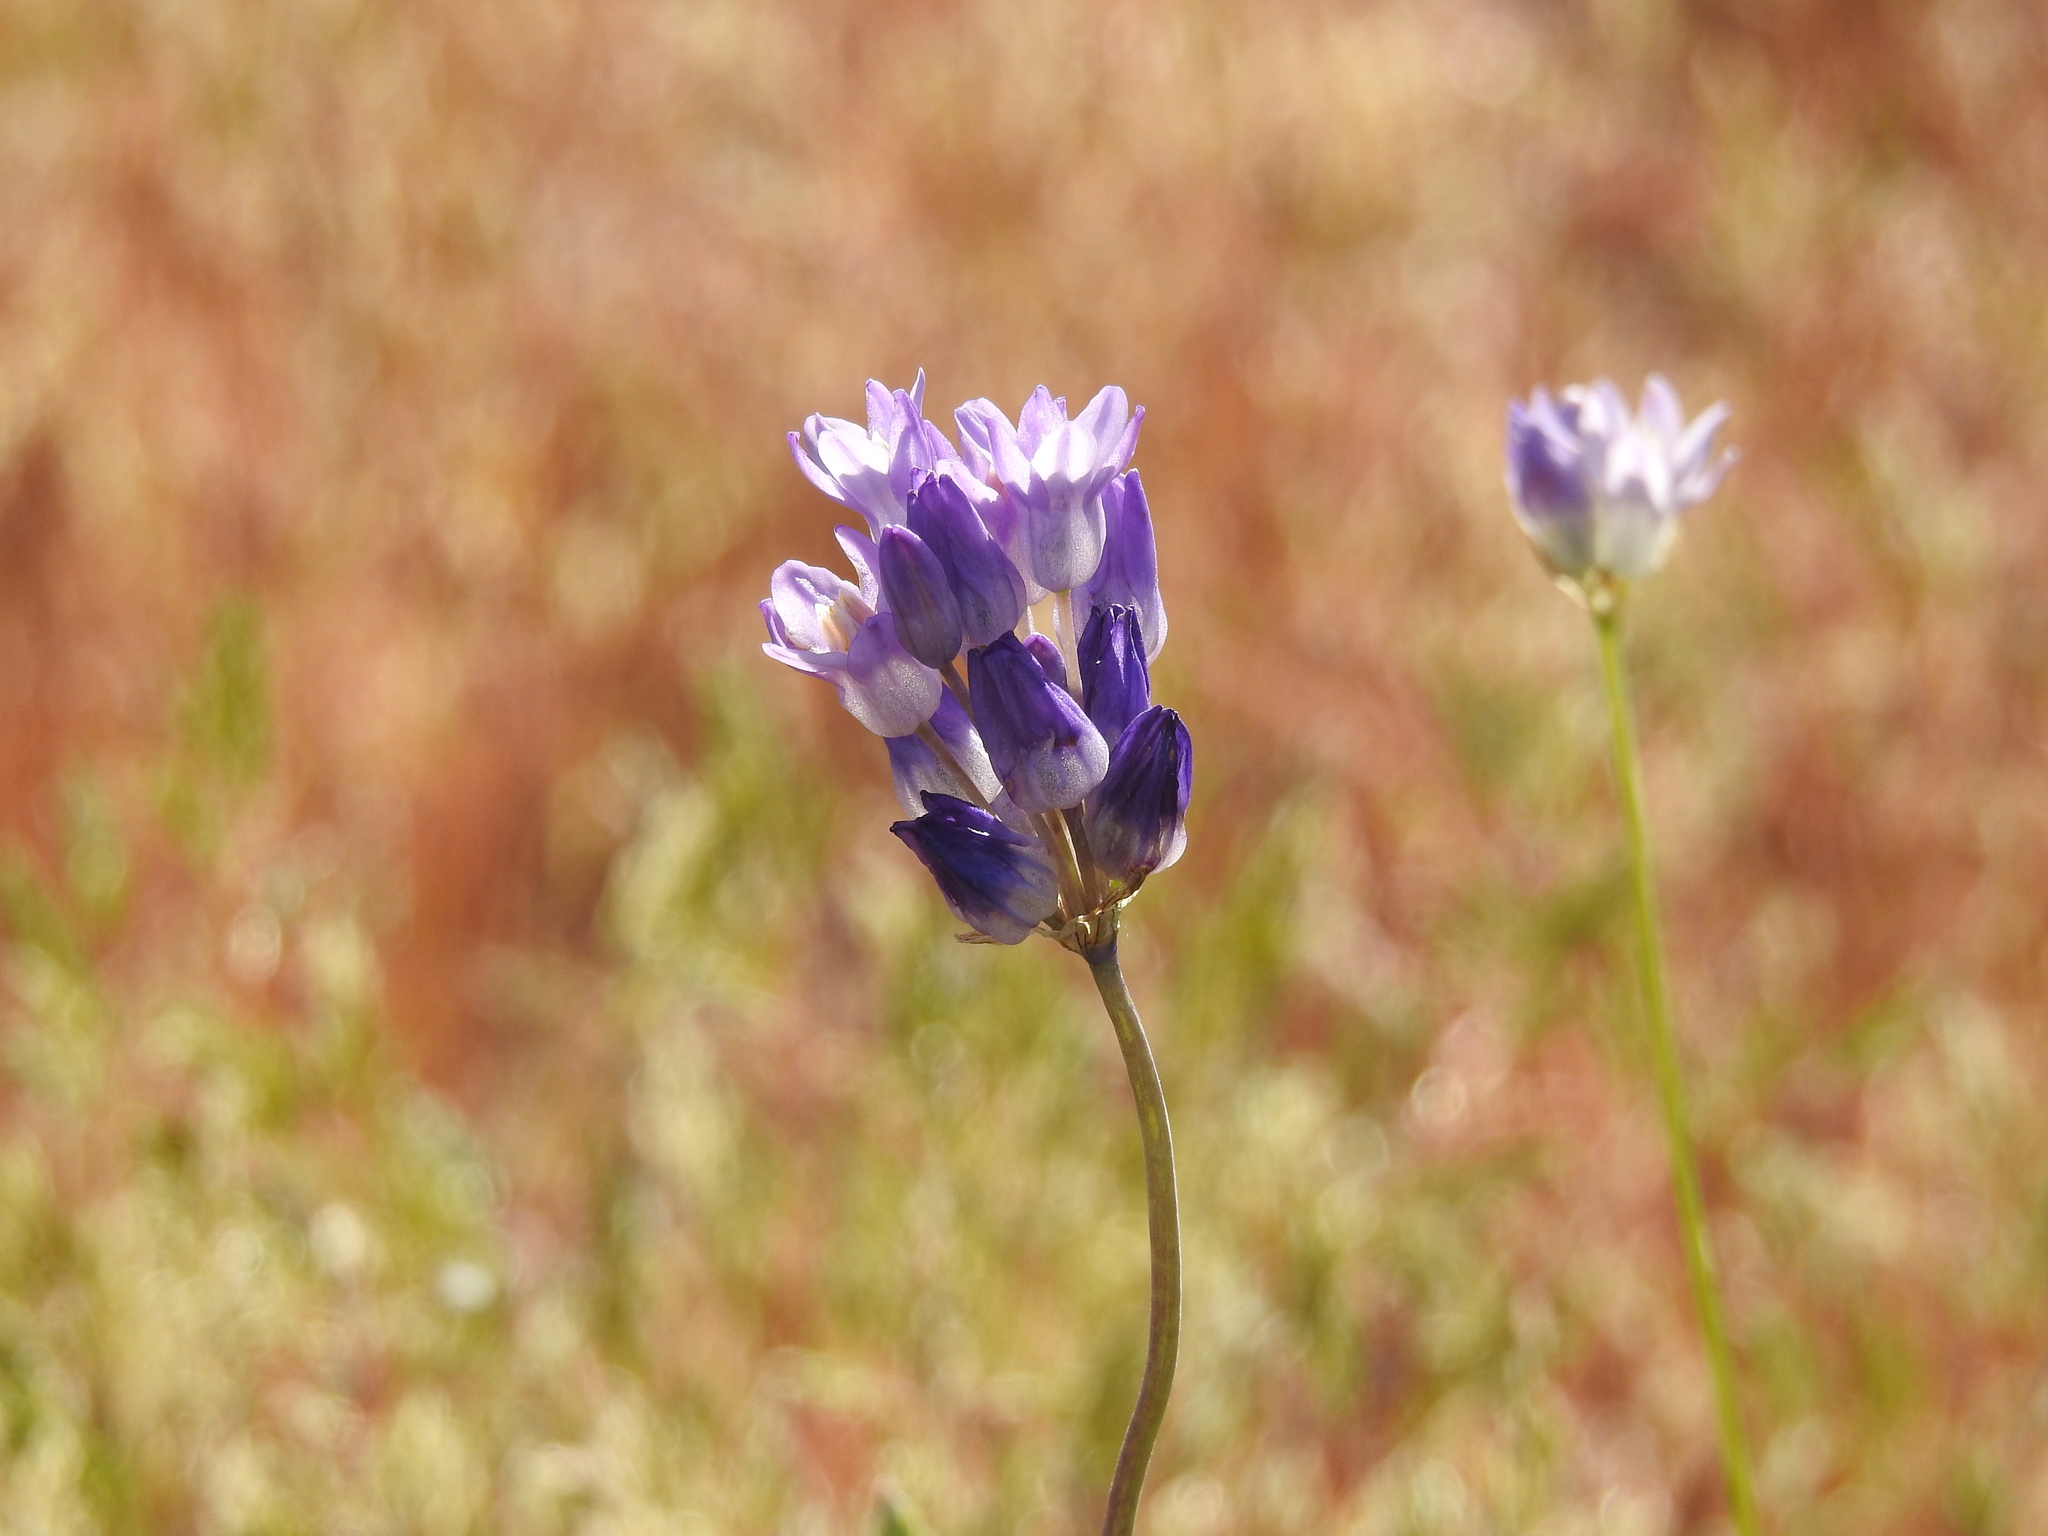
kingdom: Plantae
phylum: Tracheophyta
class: Liliopsida
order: Asparagales
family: Asparagaceae
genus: Dipterostemon
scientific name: Dipterostemon capitatus
